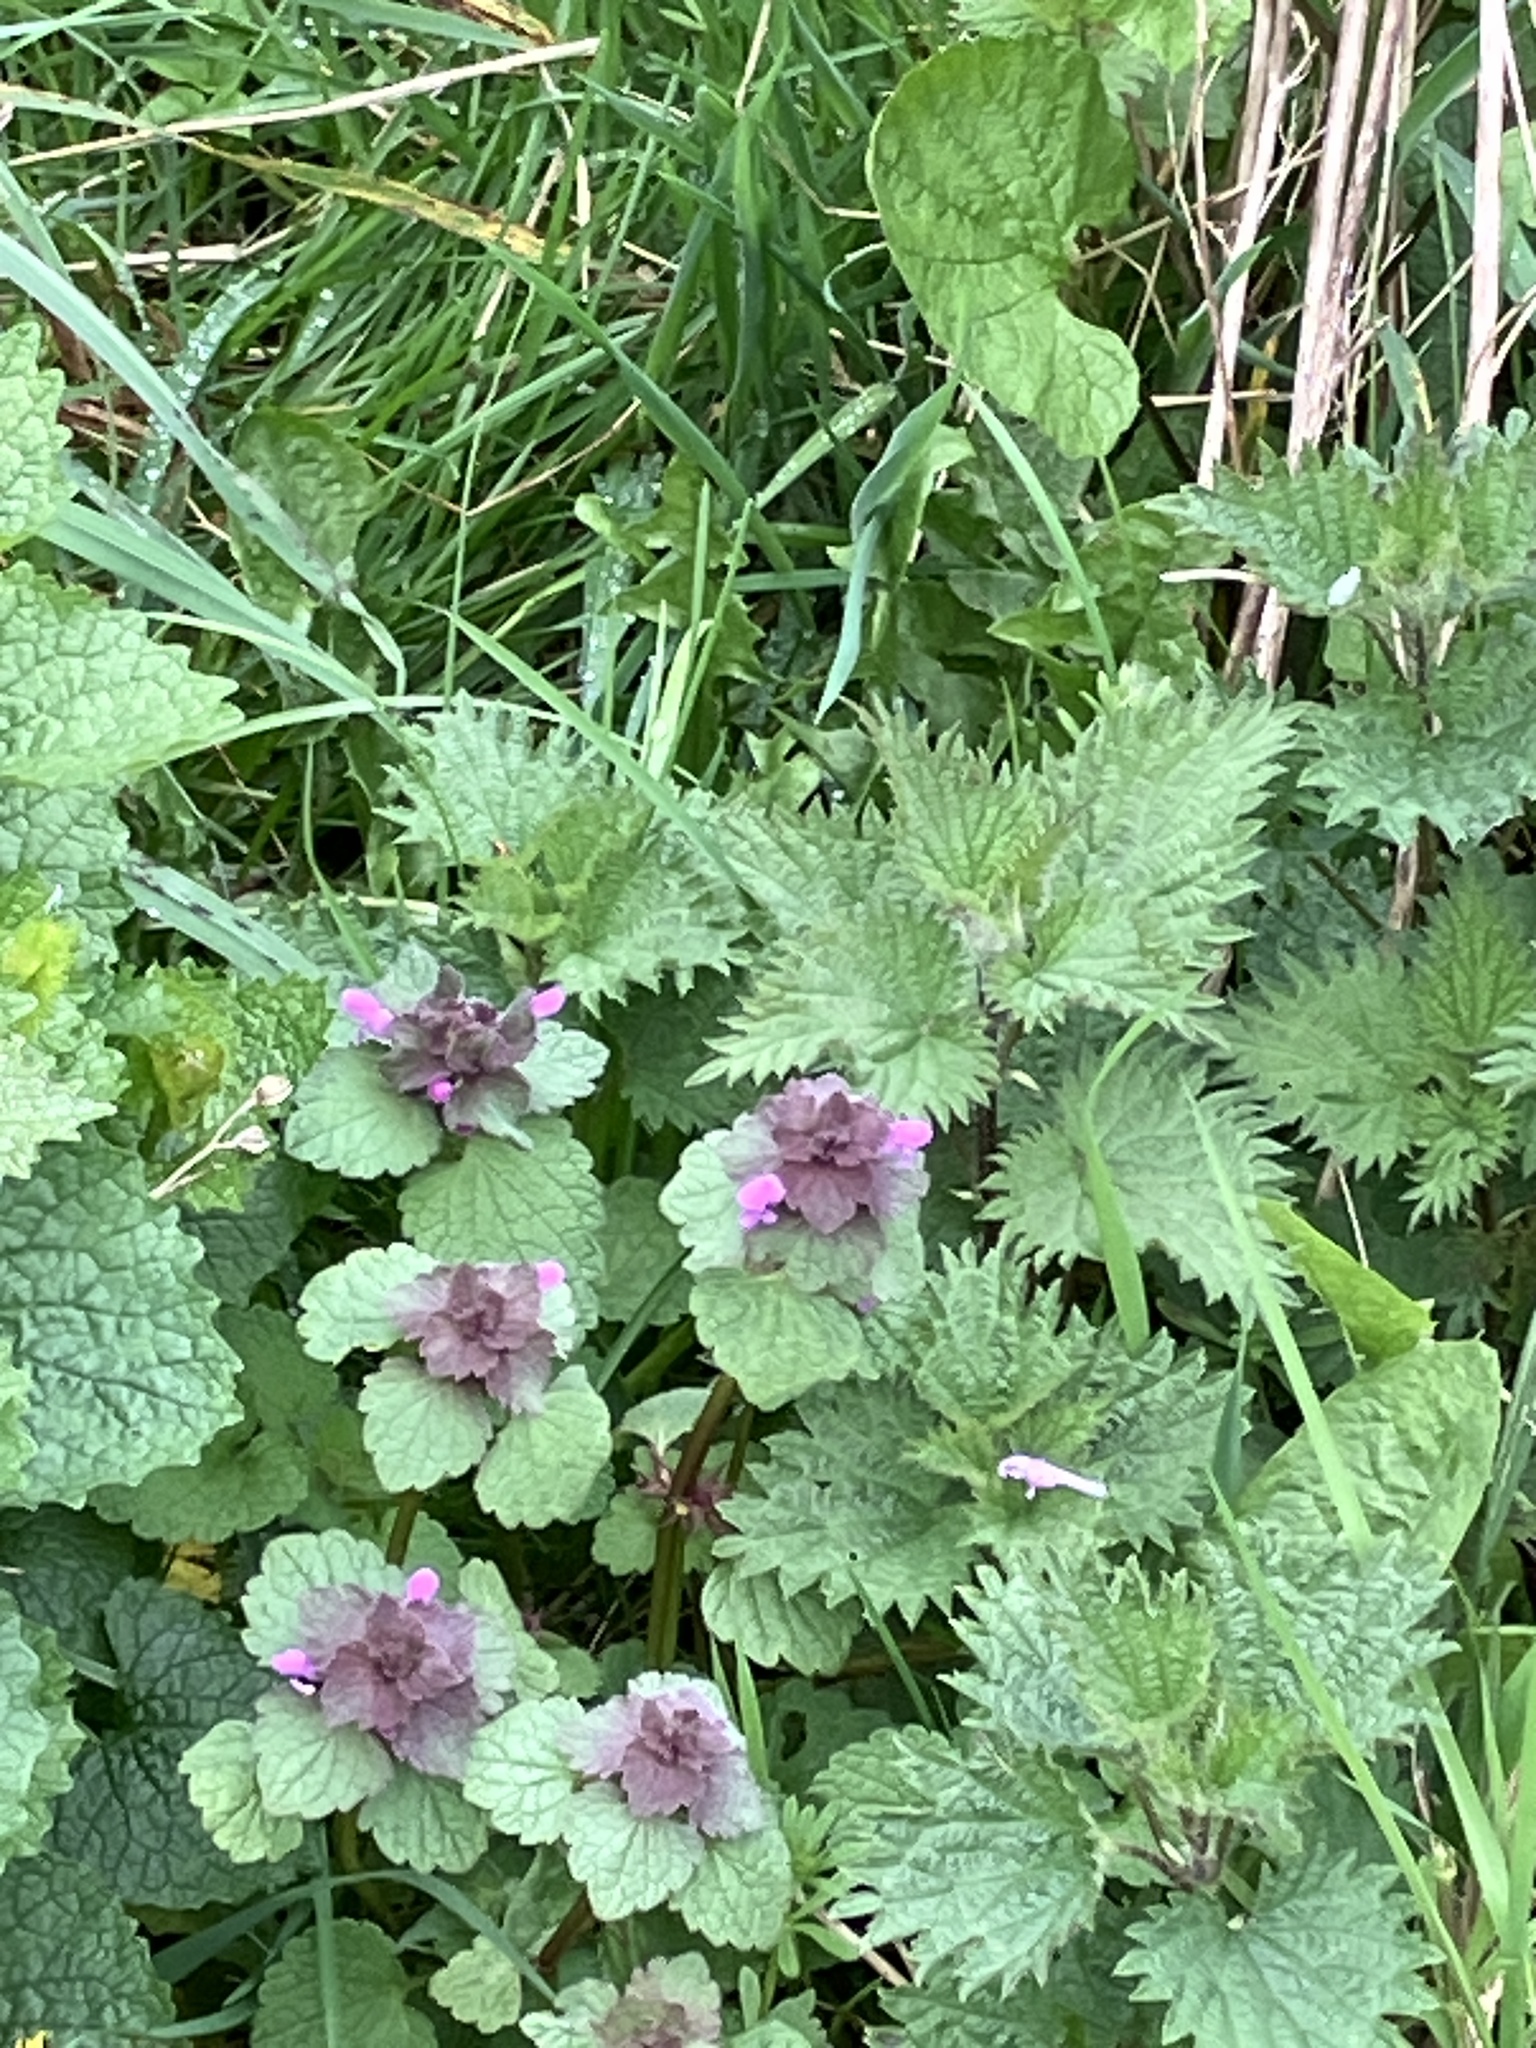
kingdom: Plantae
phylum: Tracheophyta
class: Magnoliopsida
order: Lamiales
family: Lamiaceae
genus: Lamium
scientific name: Lamium purpureum
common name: Red dead-nettle
